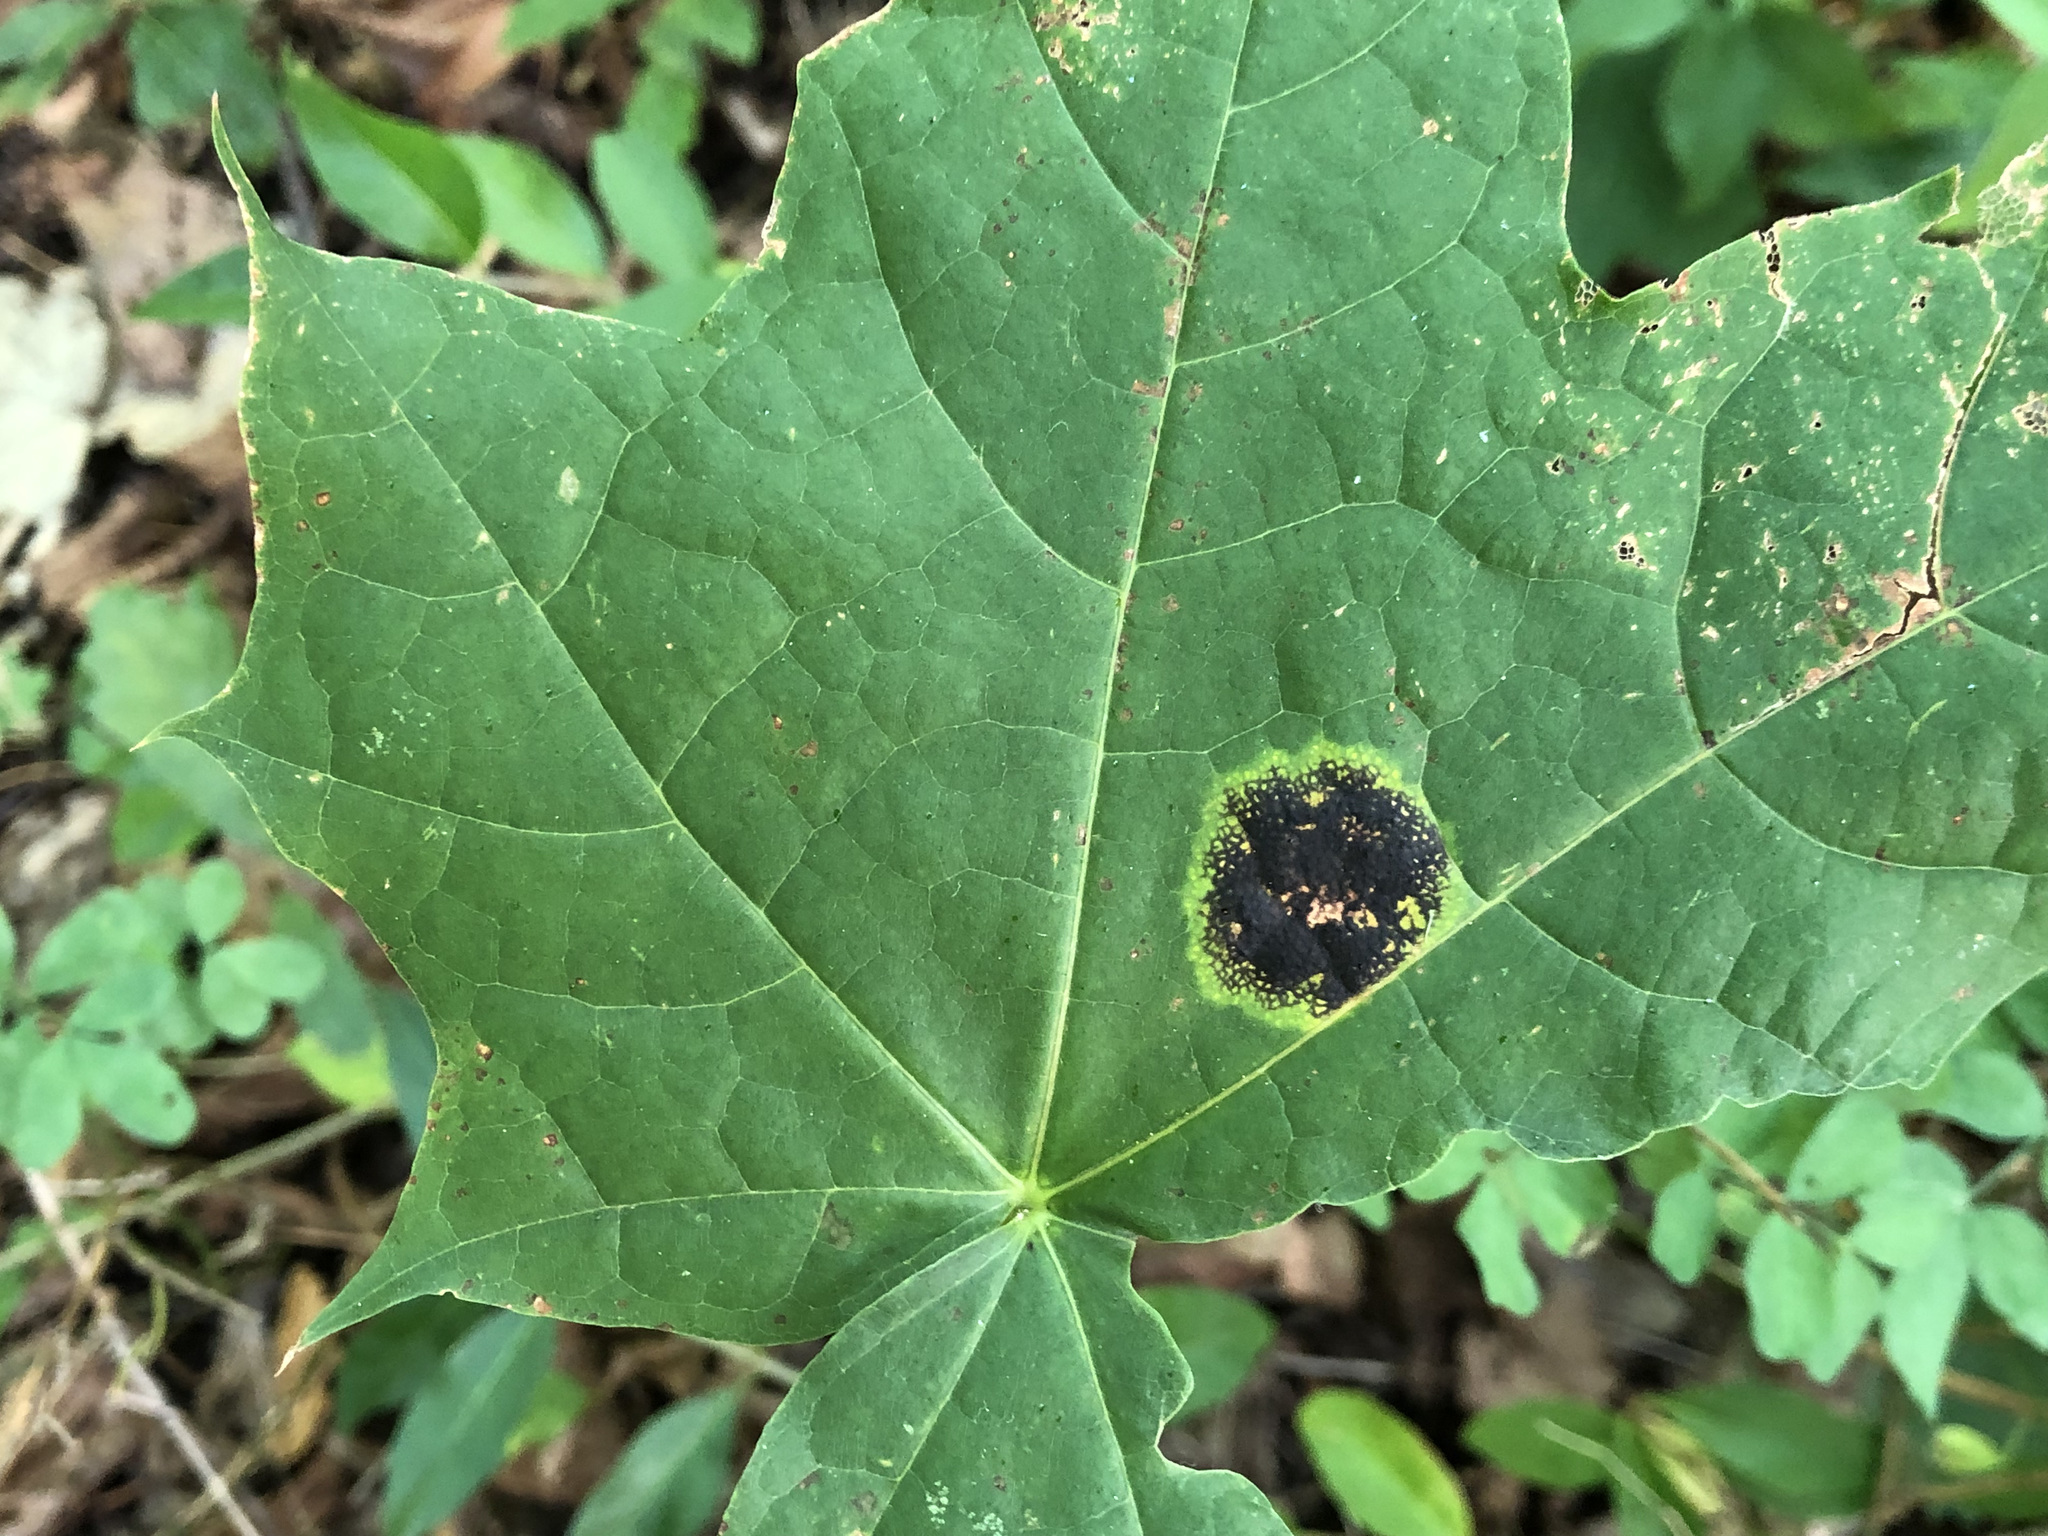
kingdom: Fungi
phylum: Ascomycota
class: Leotiomycetes
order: Rhytismatales
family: Rhytismataceae
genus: Rhytisma
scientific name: Rhytisma acerinum
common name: European tar spot
